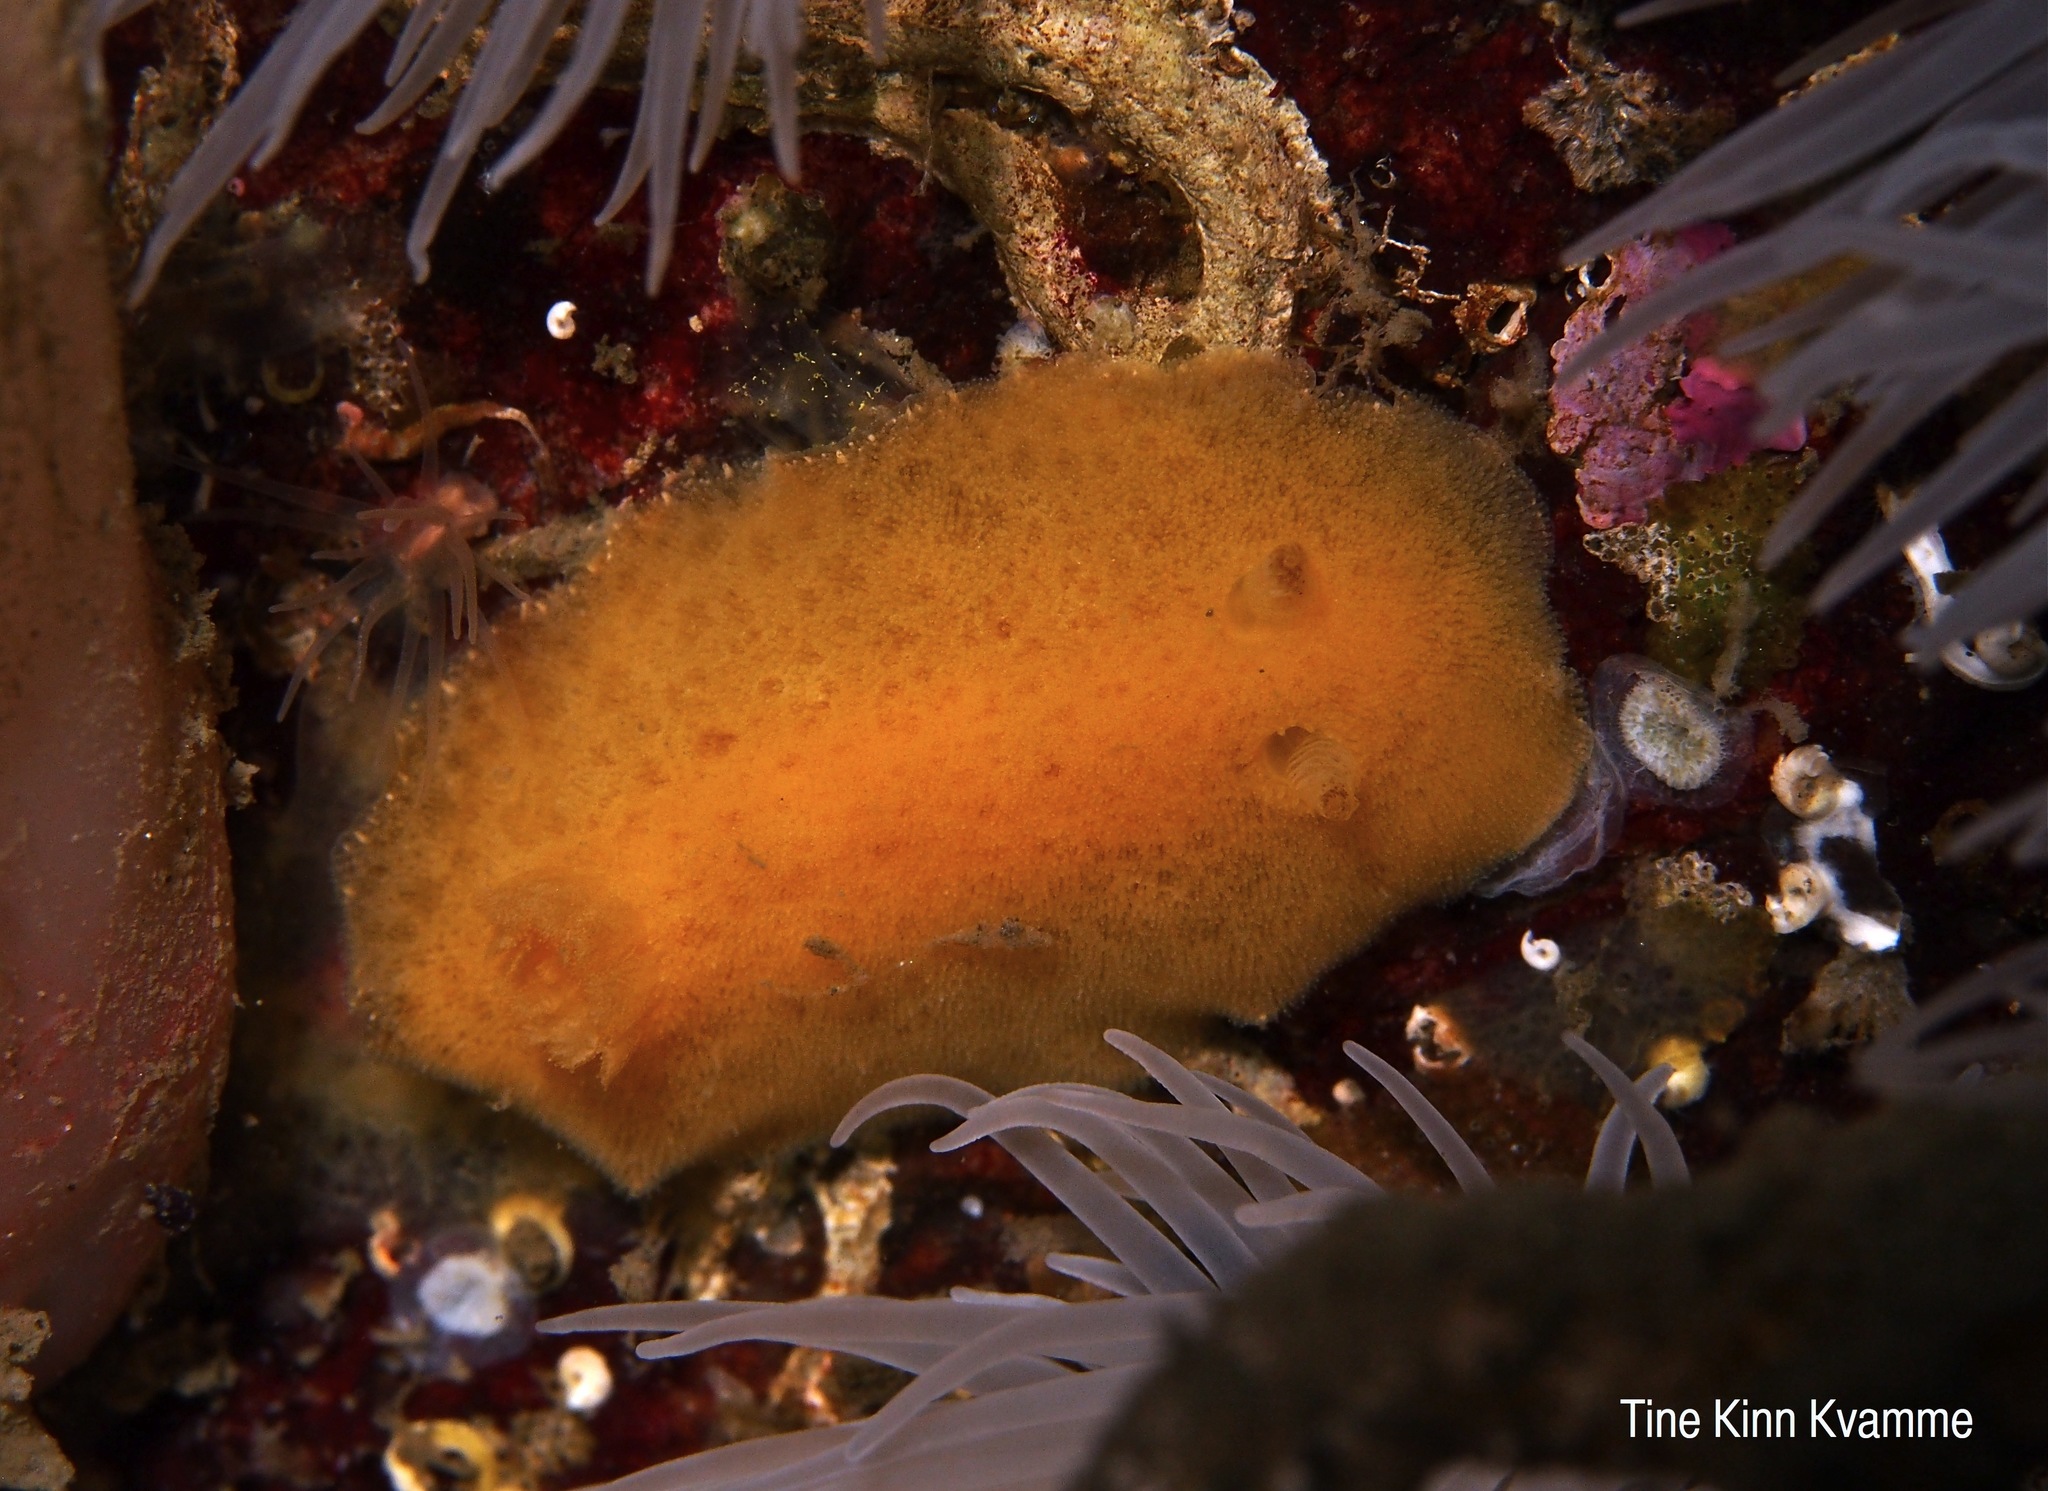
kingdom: Animalia
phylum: Mollusca
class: Gastropoda
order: Nudibranchia
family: Discodorididae
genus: Jorunna
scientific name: Jorunna tomentosa
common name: Grey sea slug
